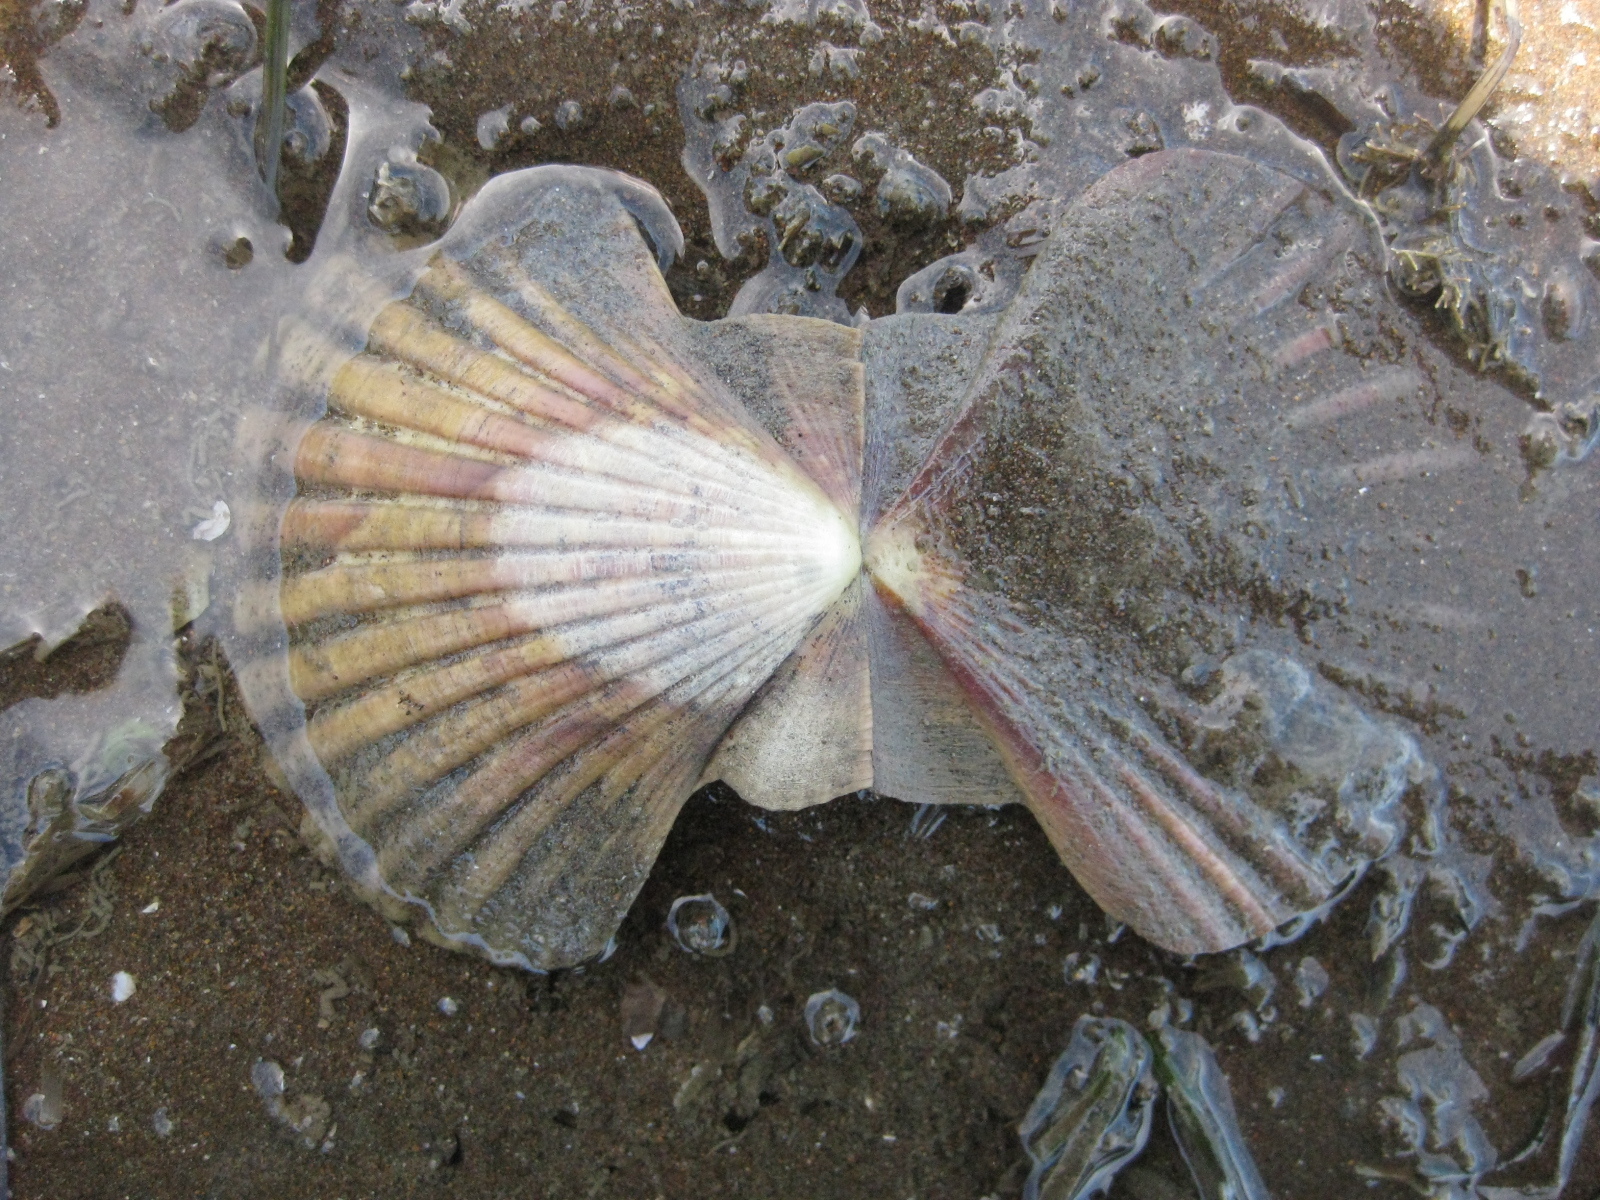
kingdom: Animalia
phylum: Mollusca
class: Bivalvia
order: Pectinida
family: Pectinidae
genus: Pecten
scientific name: Pecten novaezelandiae
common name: New zealand scallop
